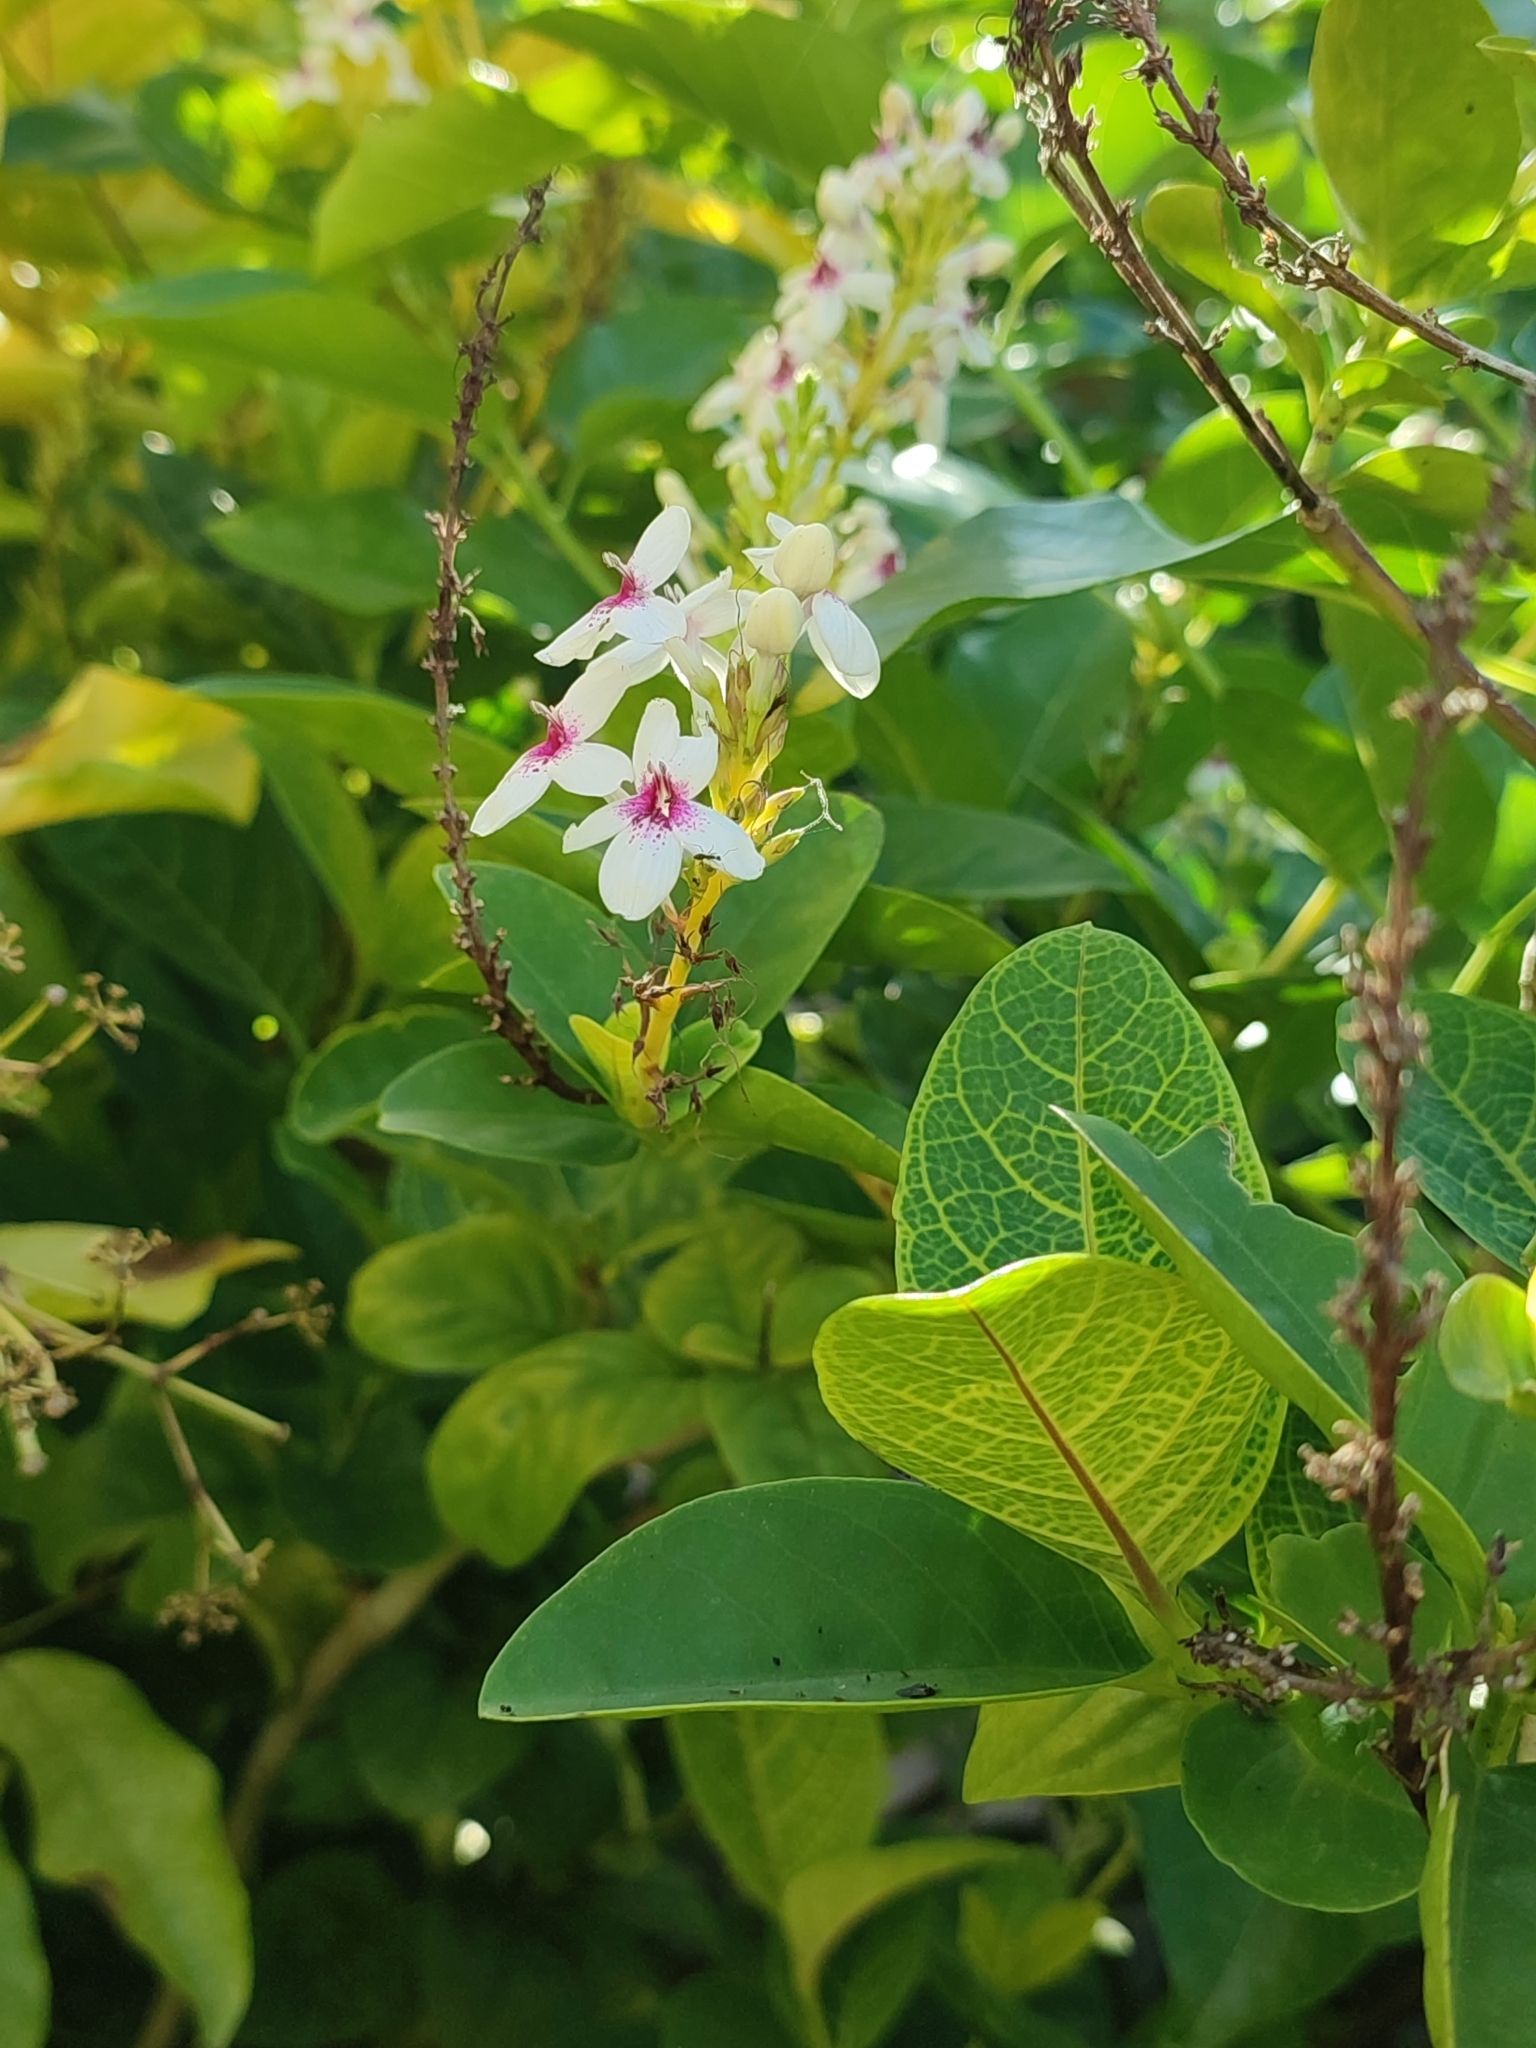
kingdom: Plantae
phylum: Tracheophyta
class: Magnoliopsida
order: Lamiales
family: Acanthaceae
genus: Pseuderanthemum
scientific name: Pseuderanthemum maculatum
